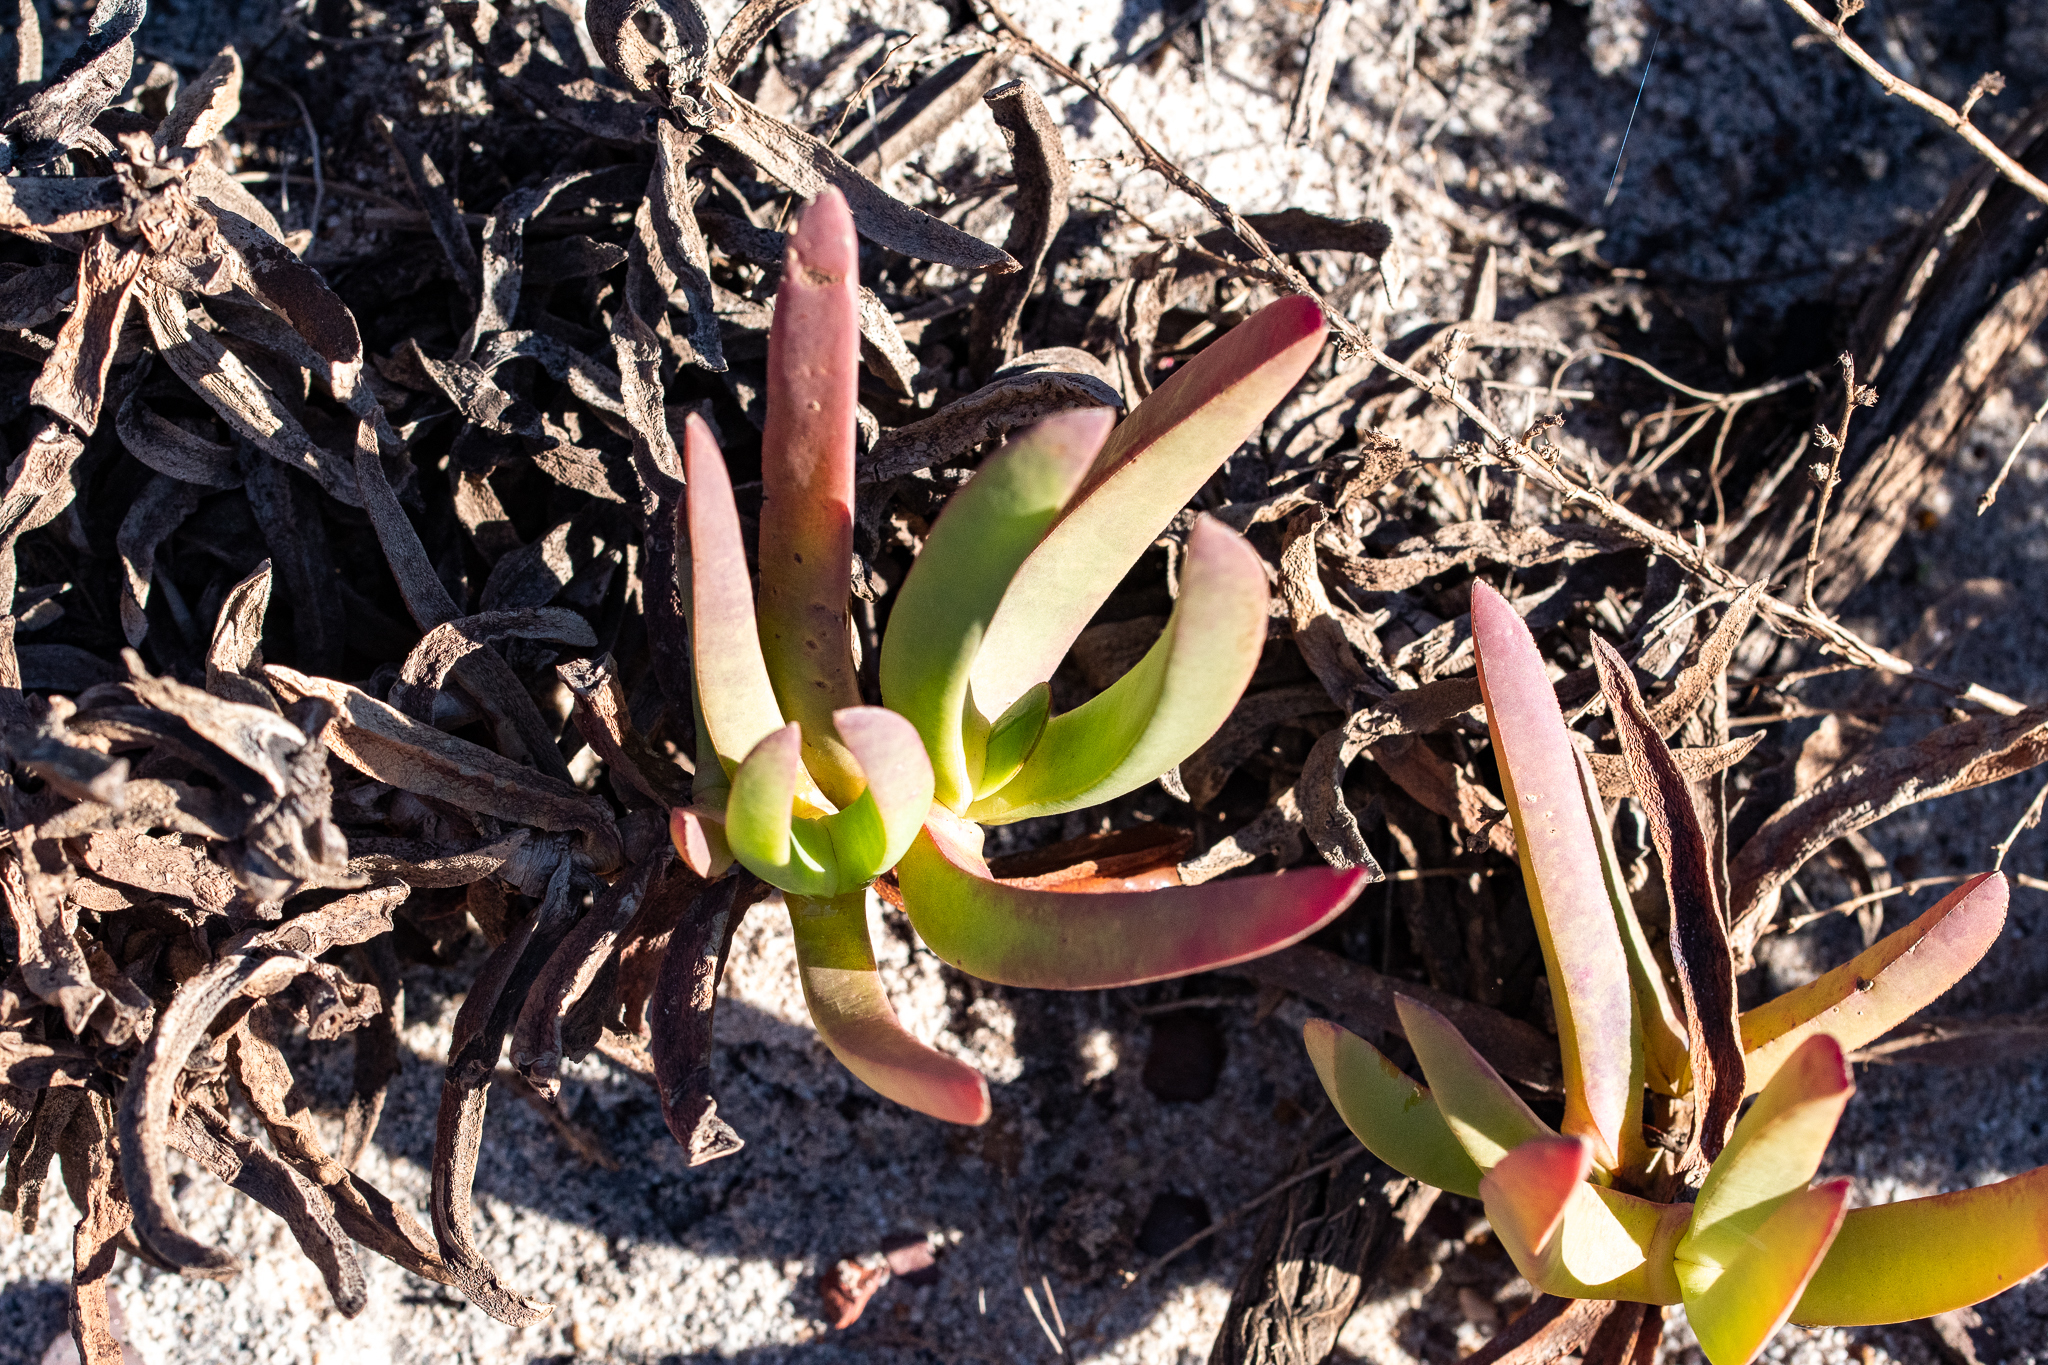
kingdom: Plantae
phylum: Tracheophyta
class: Magnoliopsida
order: Caryophyllales
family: Aizoaceae
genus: Carpobrotus
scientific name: Carpobrotus edulis
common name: Hottentot-fig
